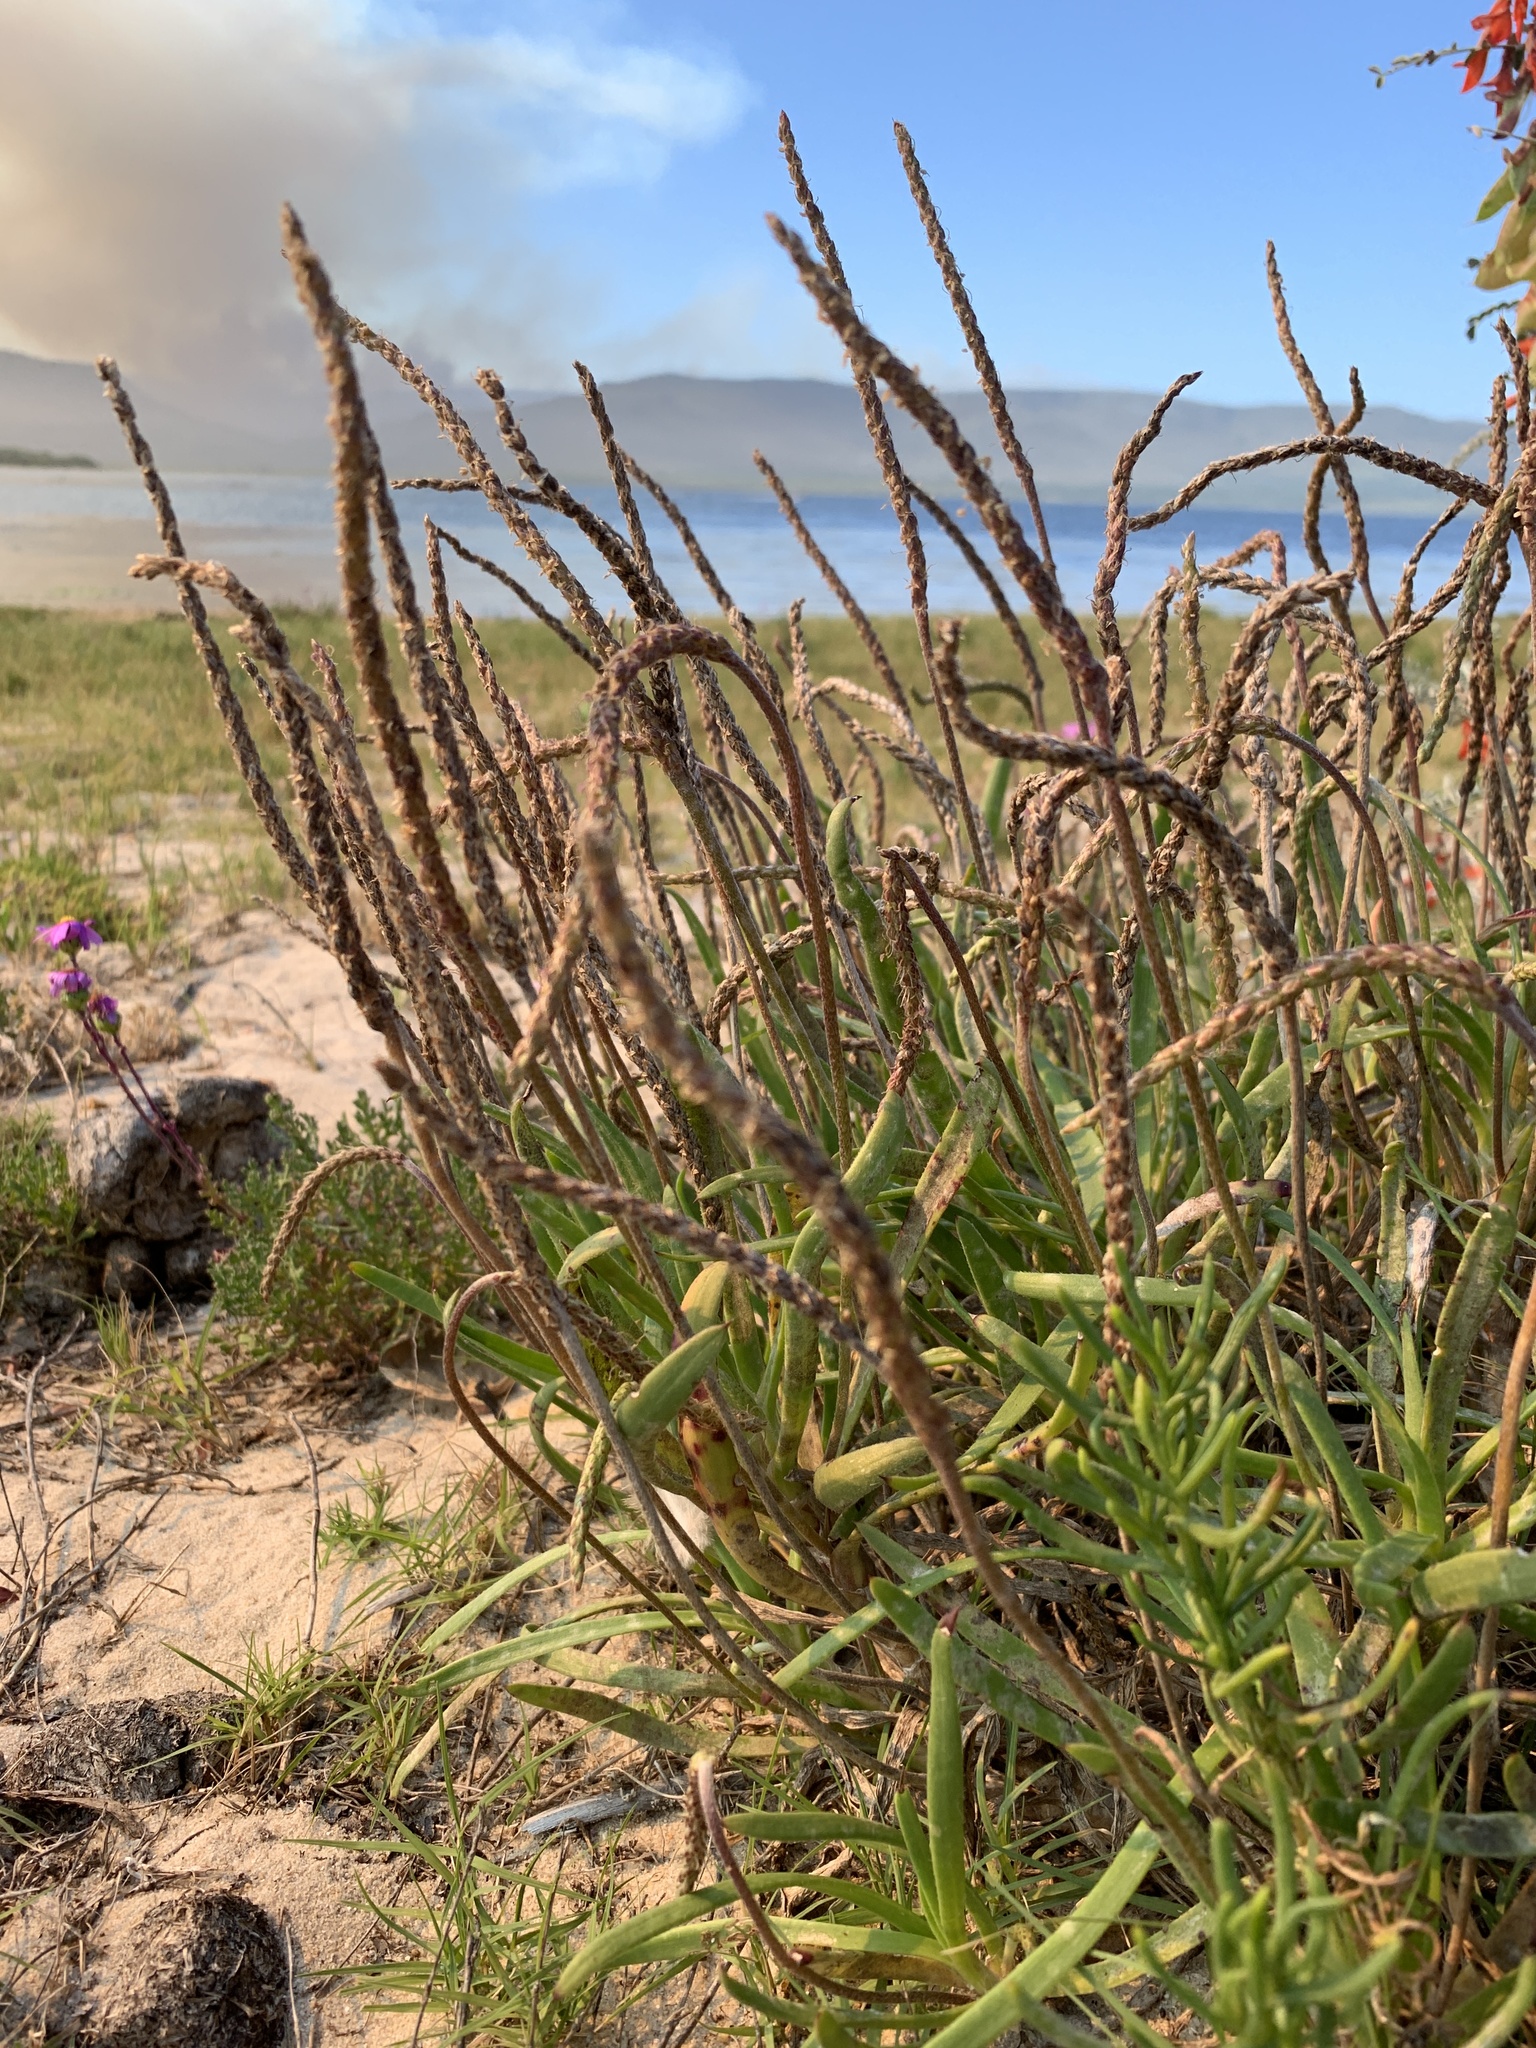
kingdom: Plantae
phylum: Tracheophyta
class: Magnoliopsida
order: Lamiales
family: Plantaginaceae
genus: Plantago
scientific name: Plantago carnosa
